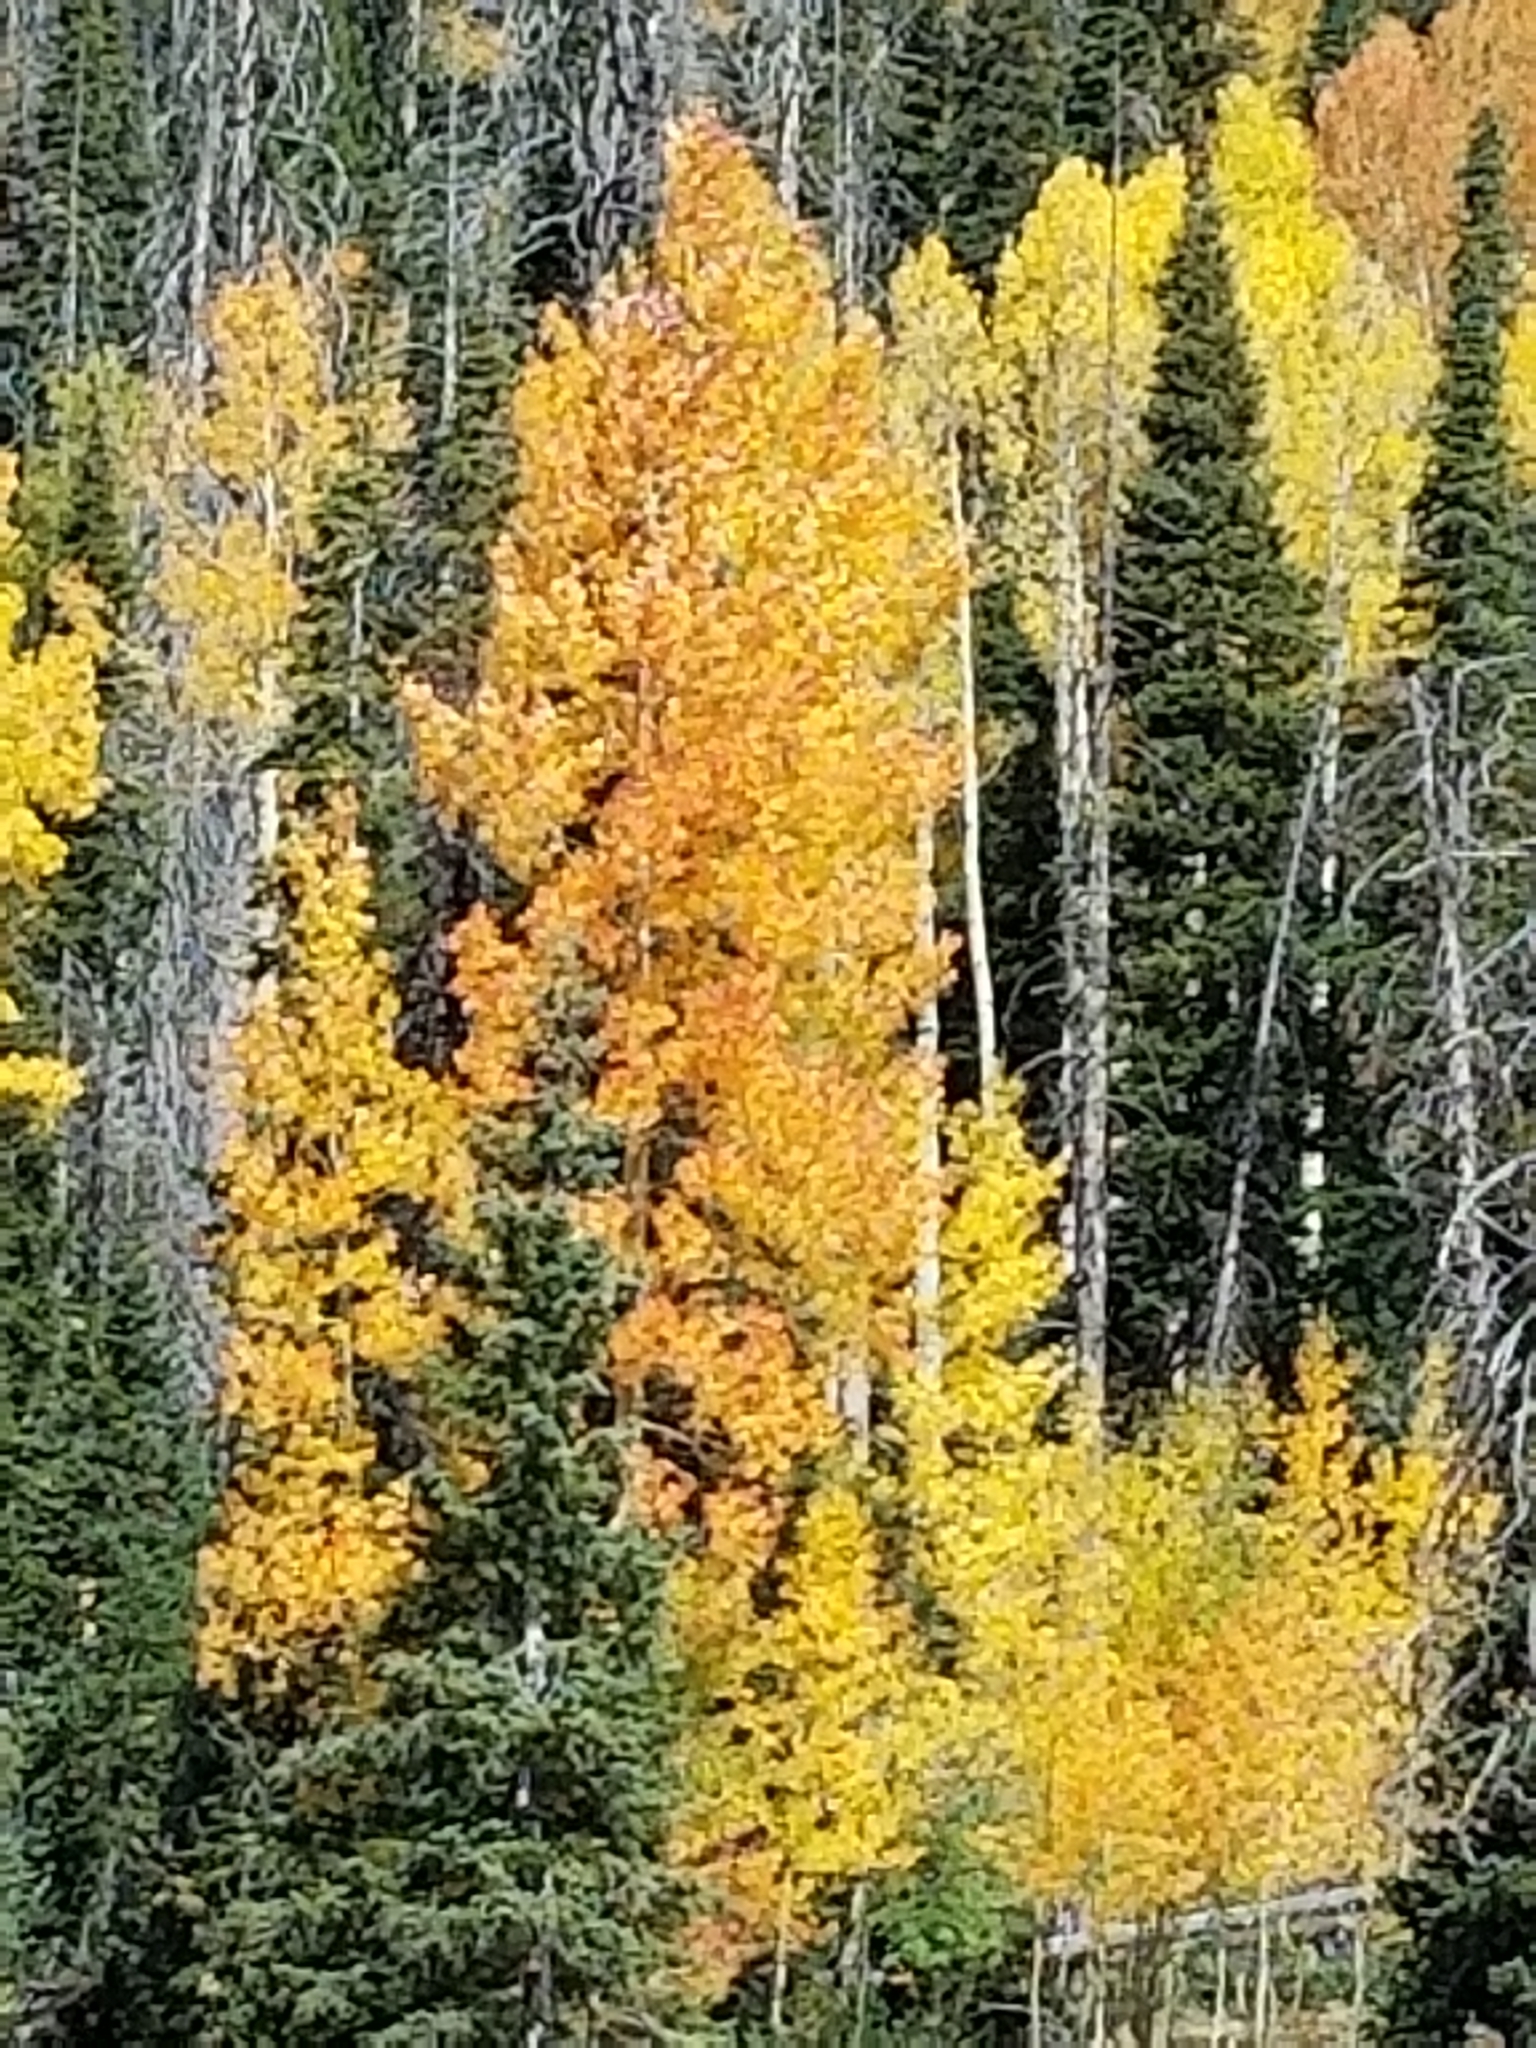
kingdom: Plantae
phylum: Tracheophyta
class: Magnoliopsida
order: Malpighiales
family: Salicaceae
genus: Populus
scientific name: Populus tremuloides
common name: Quaking aspen
